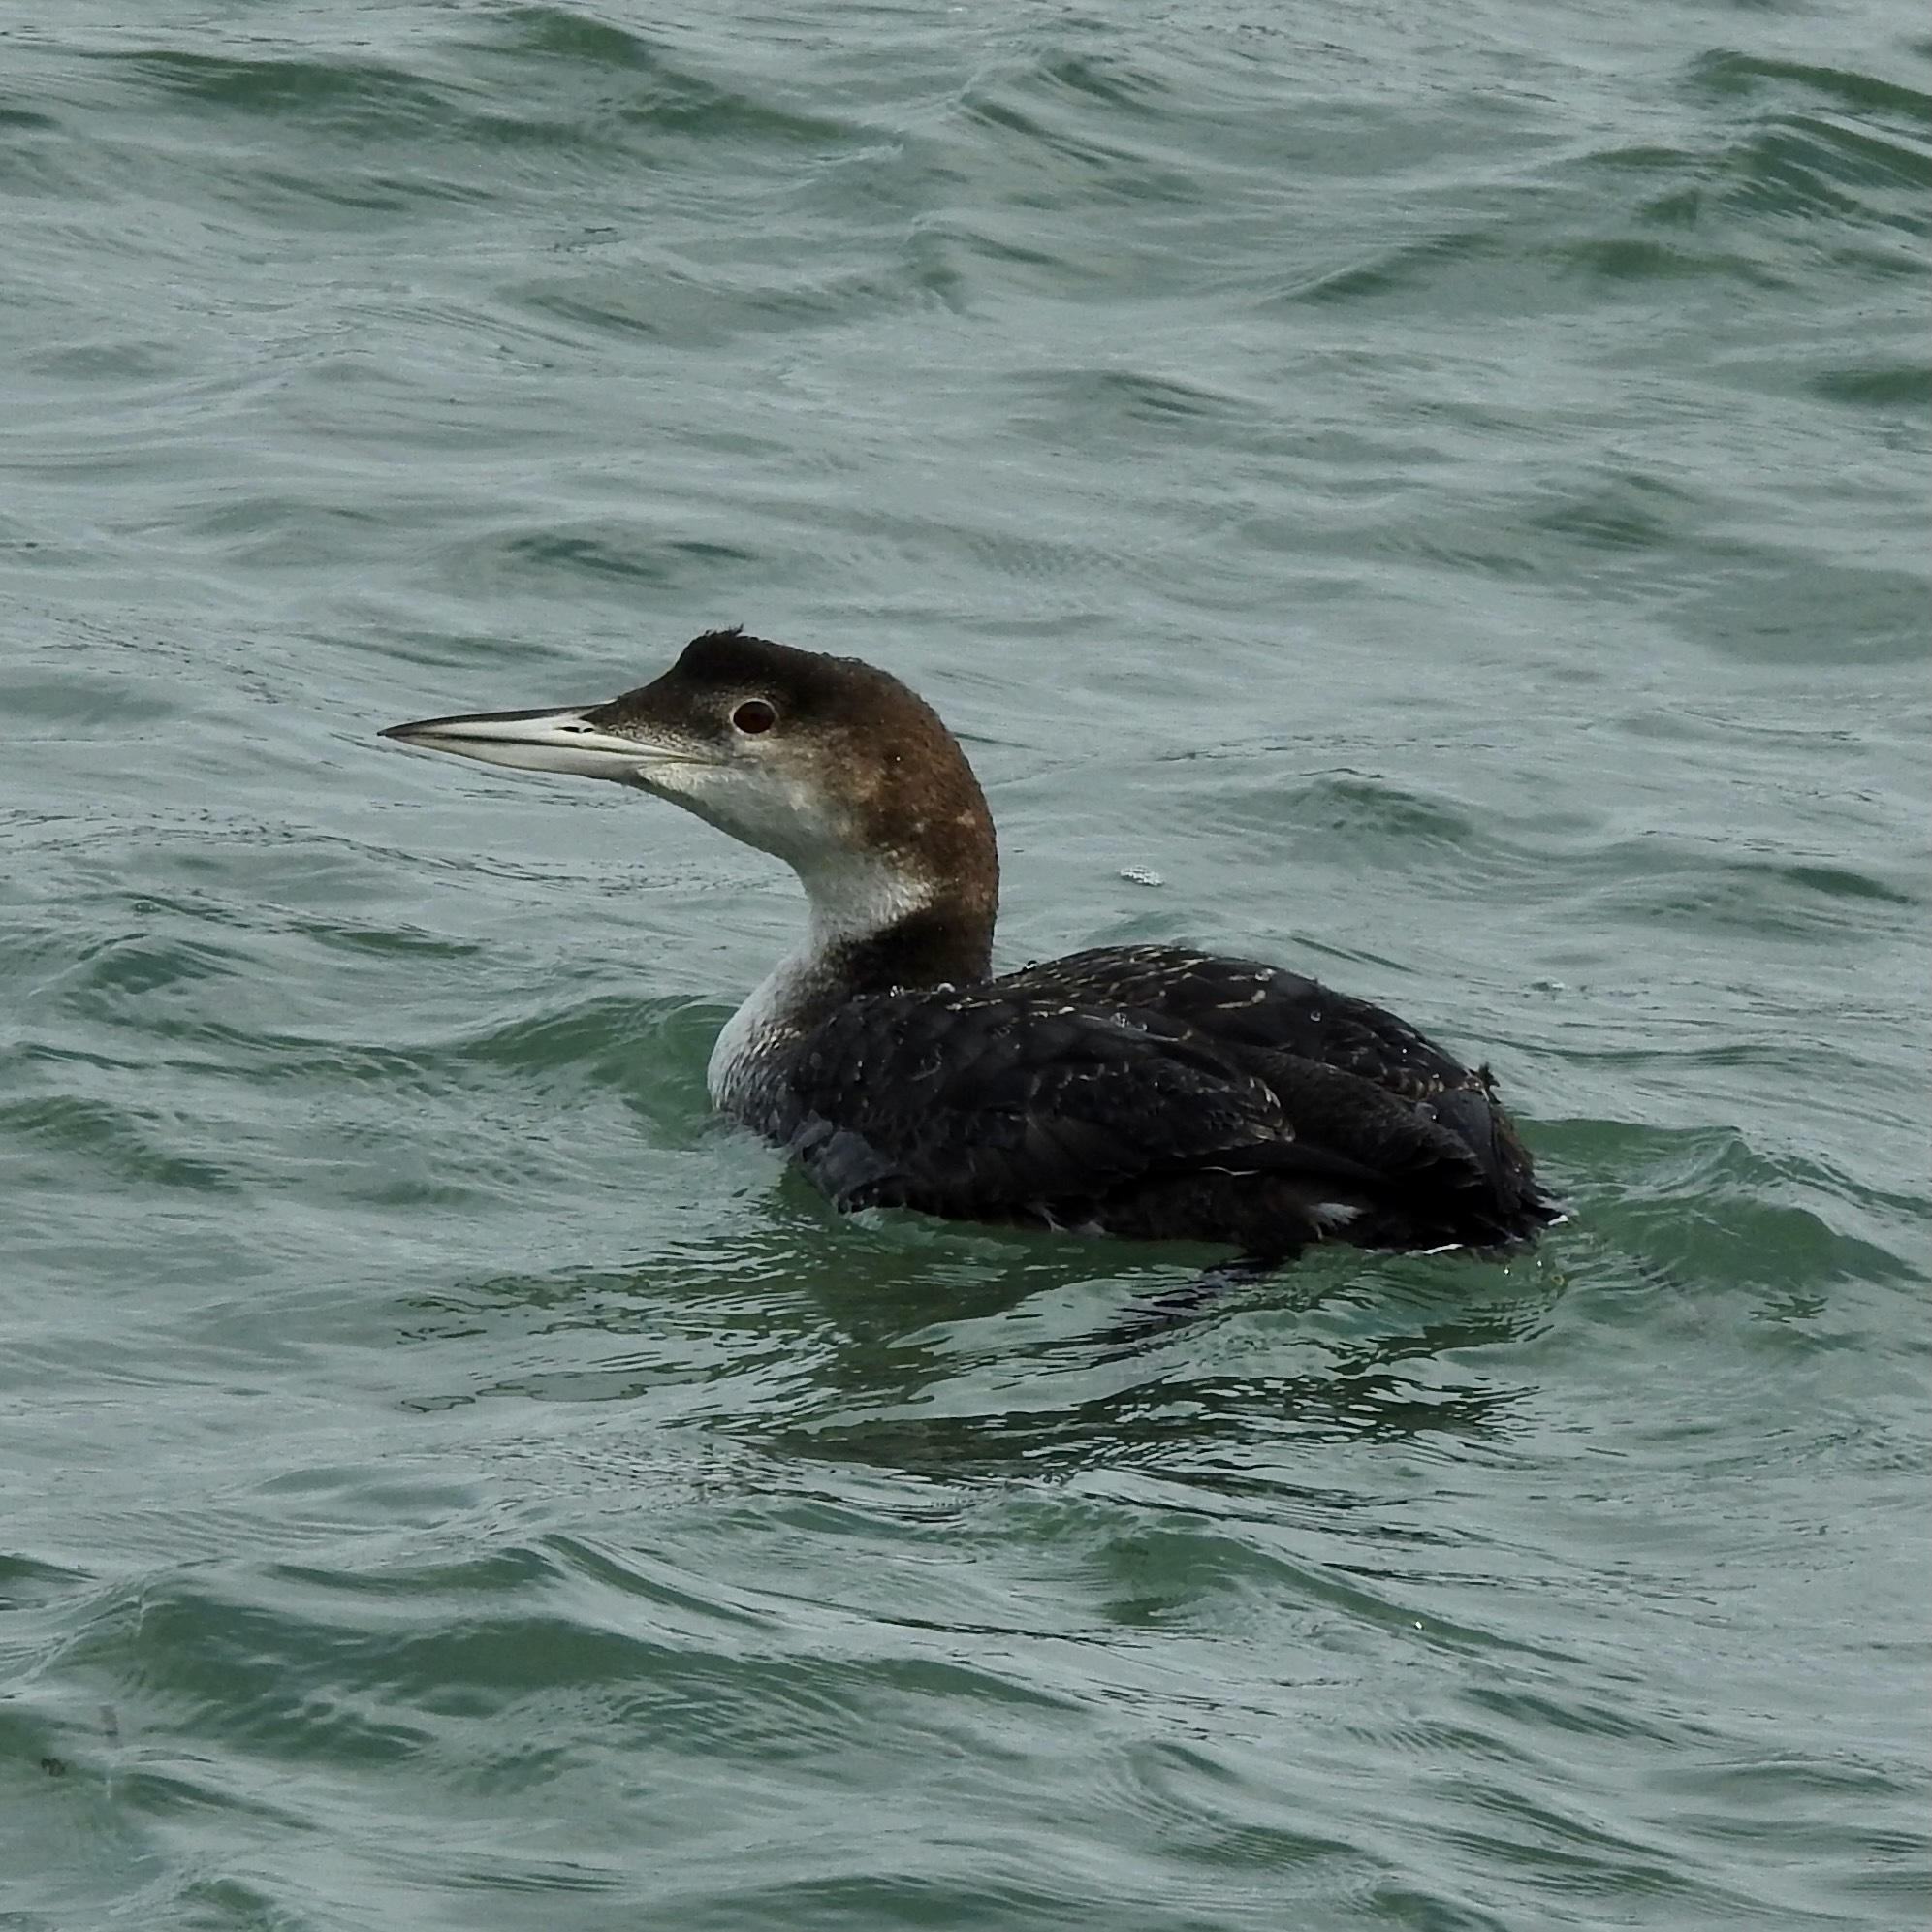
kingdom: Animalia
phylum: Chordata
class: Aves
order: Gaviiformes
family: Gaviidae
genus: Gavia
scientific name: Gavia immer
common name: Common loon
